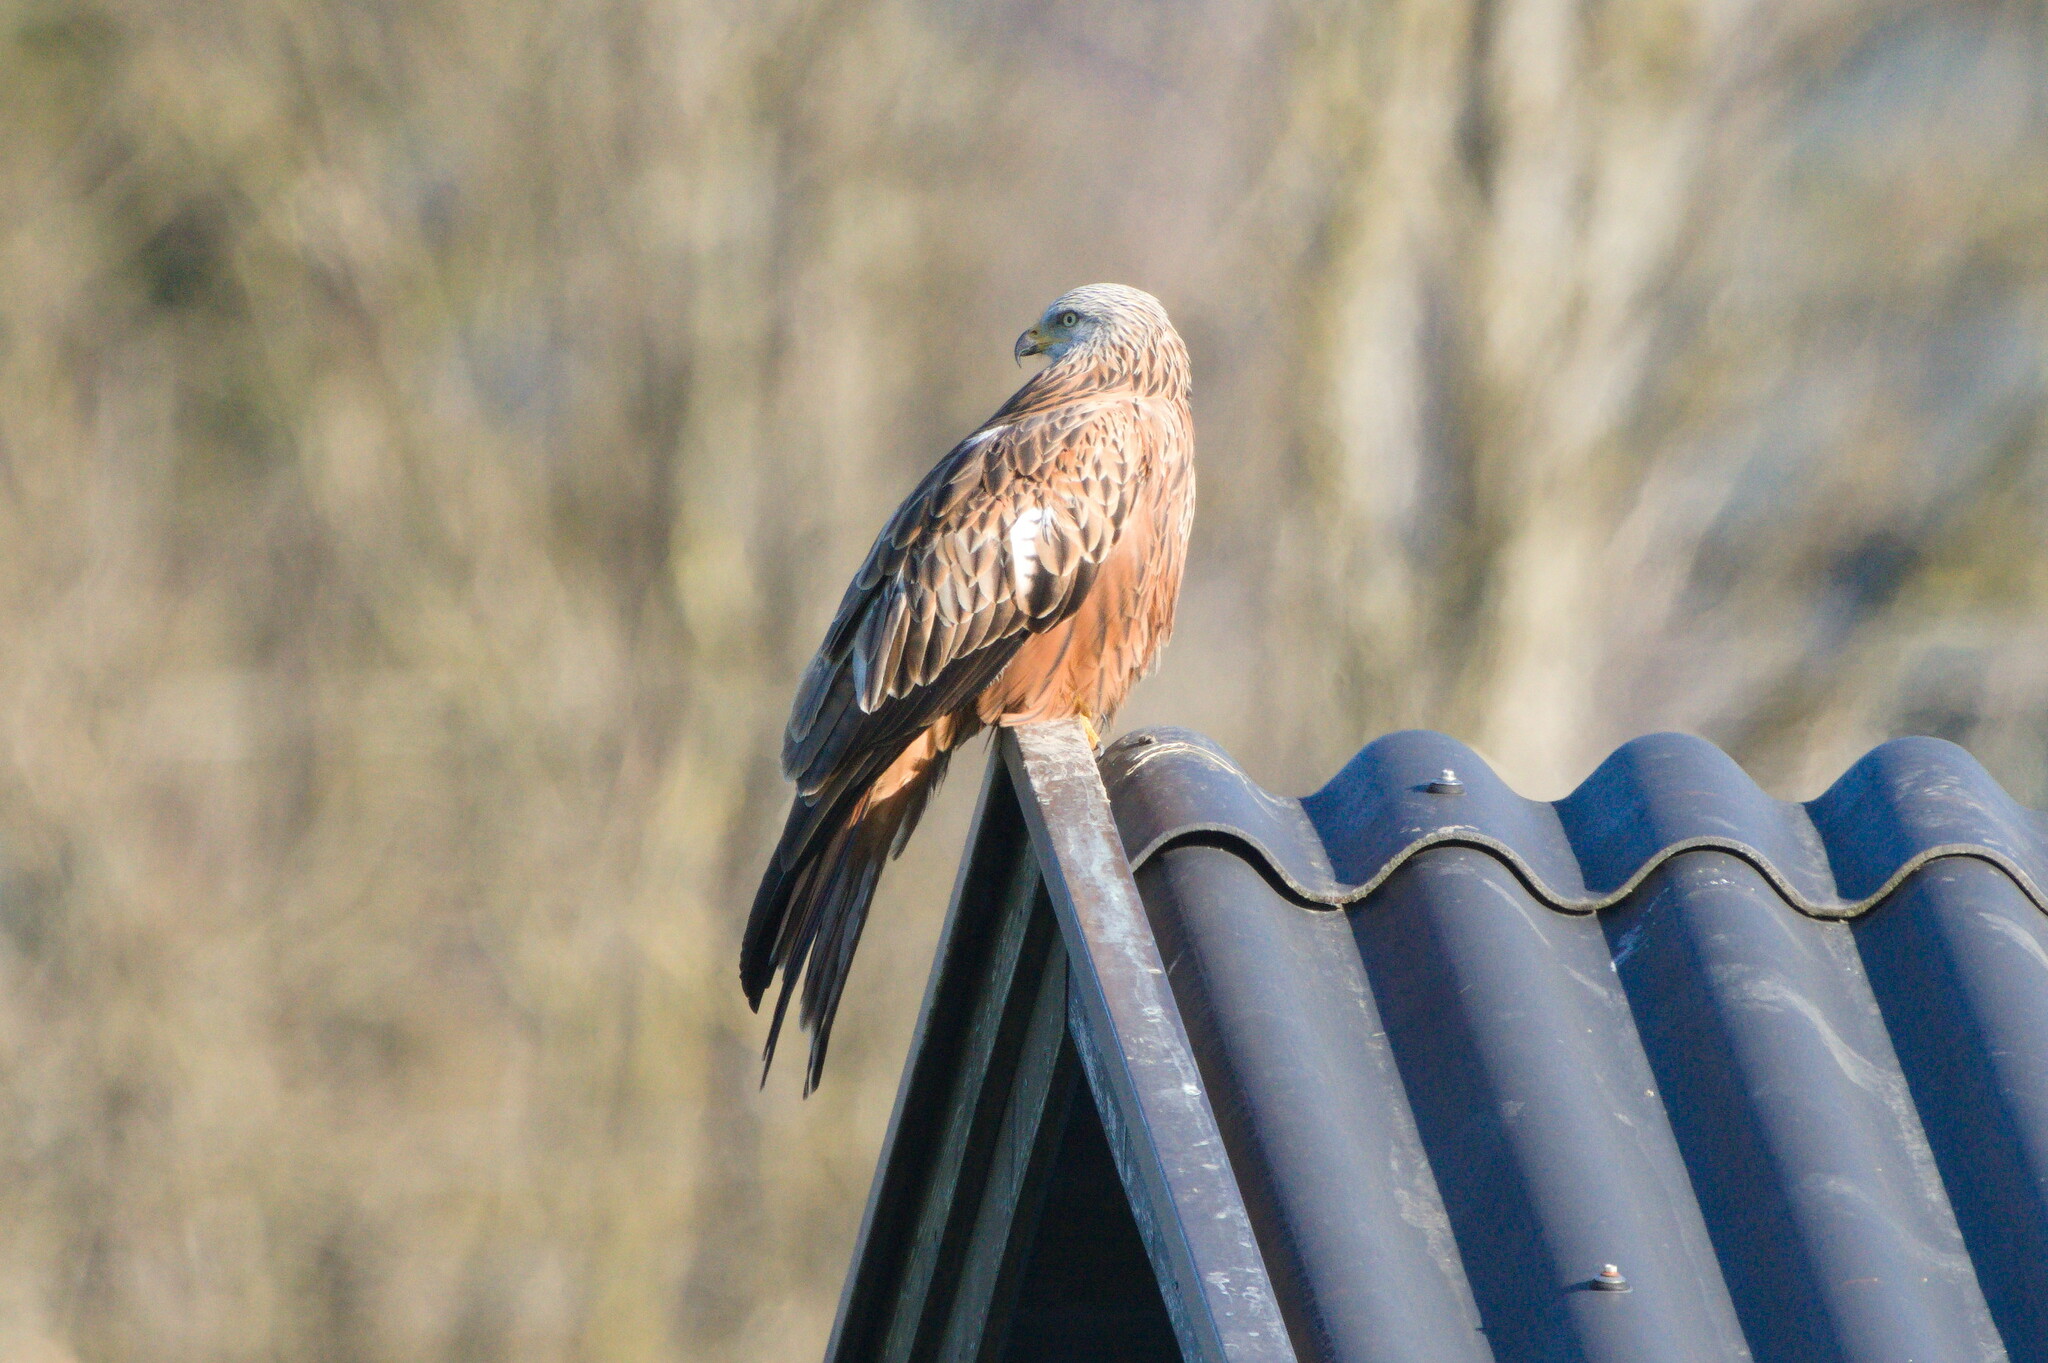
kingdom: Animalia
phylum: Chordata
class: Aves
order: Accipitriformes
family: Accipitridae
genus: Milvus
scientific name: Milvus milvus
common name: Red kite
